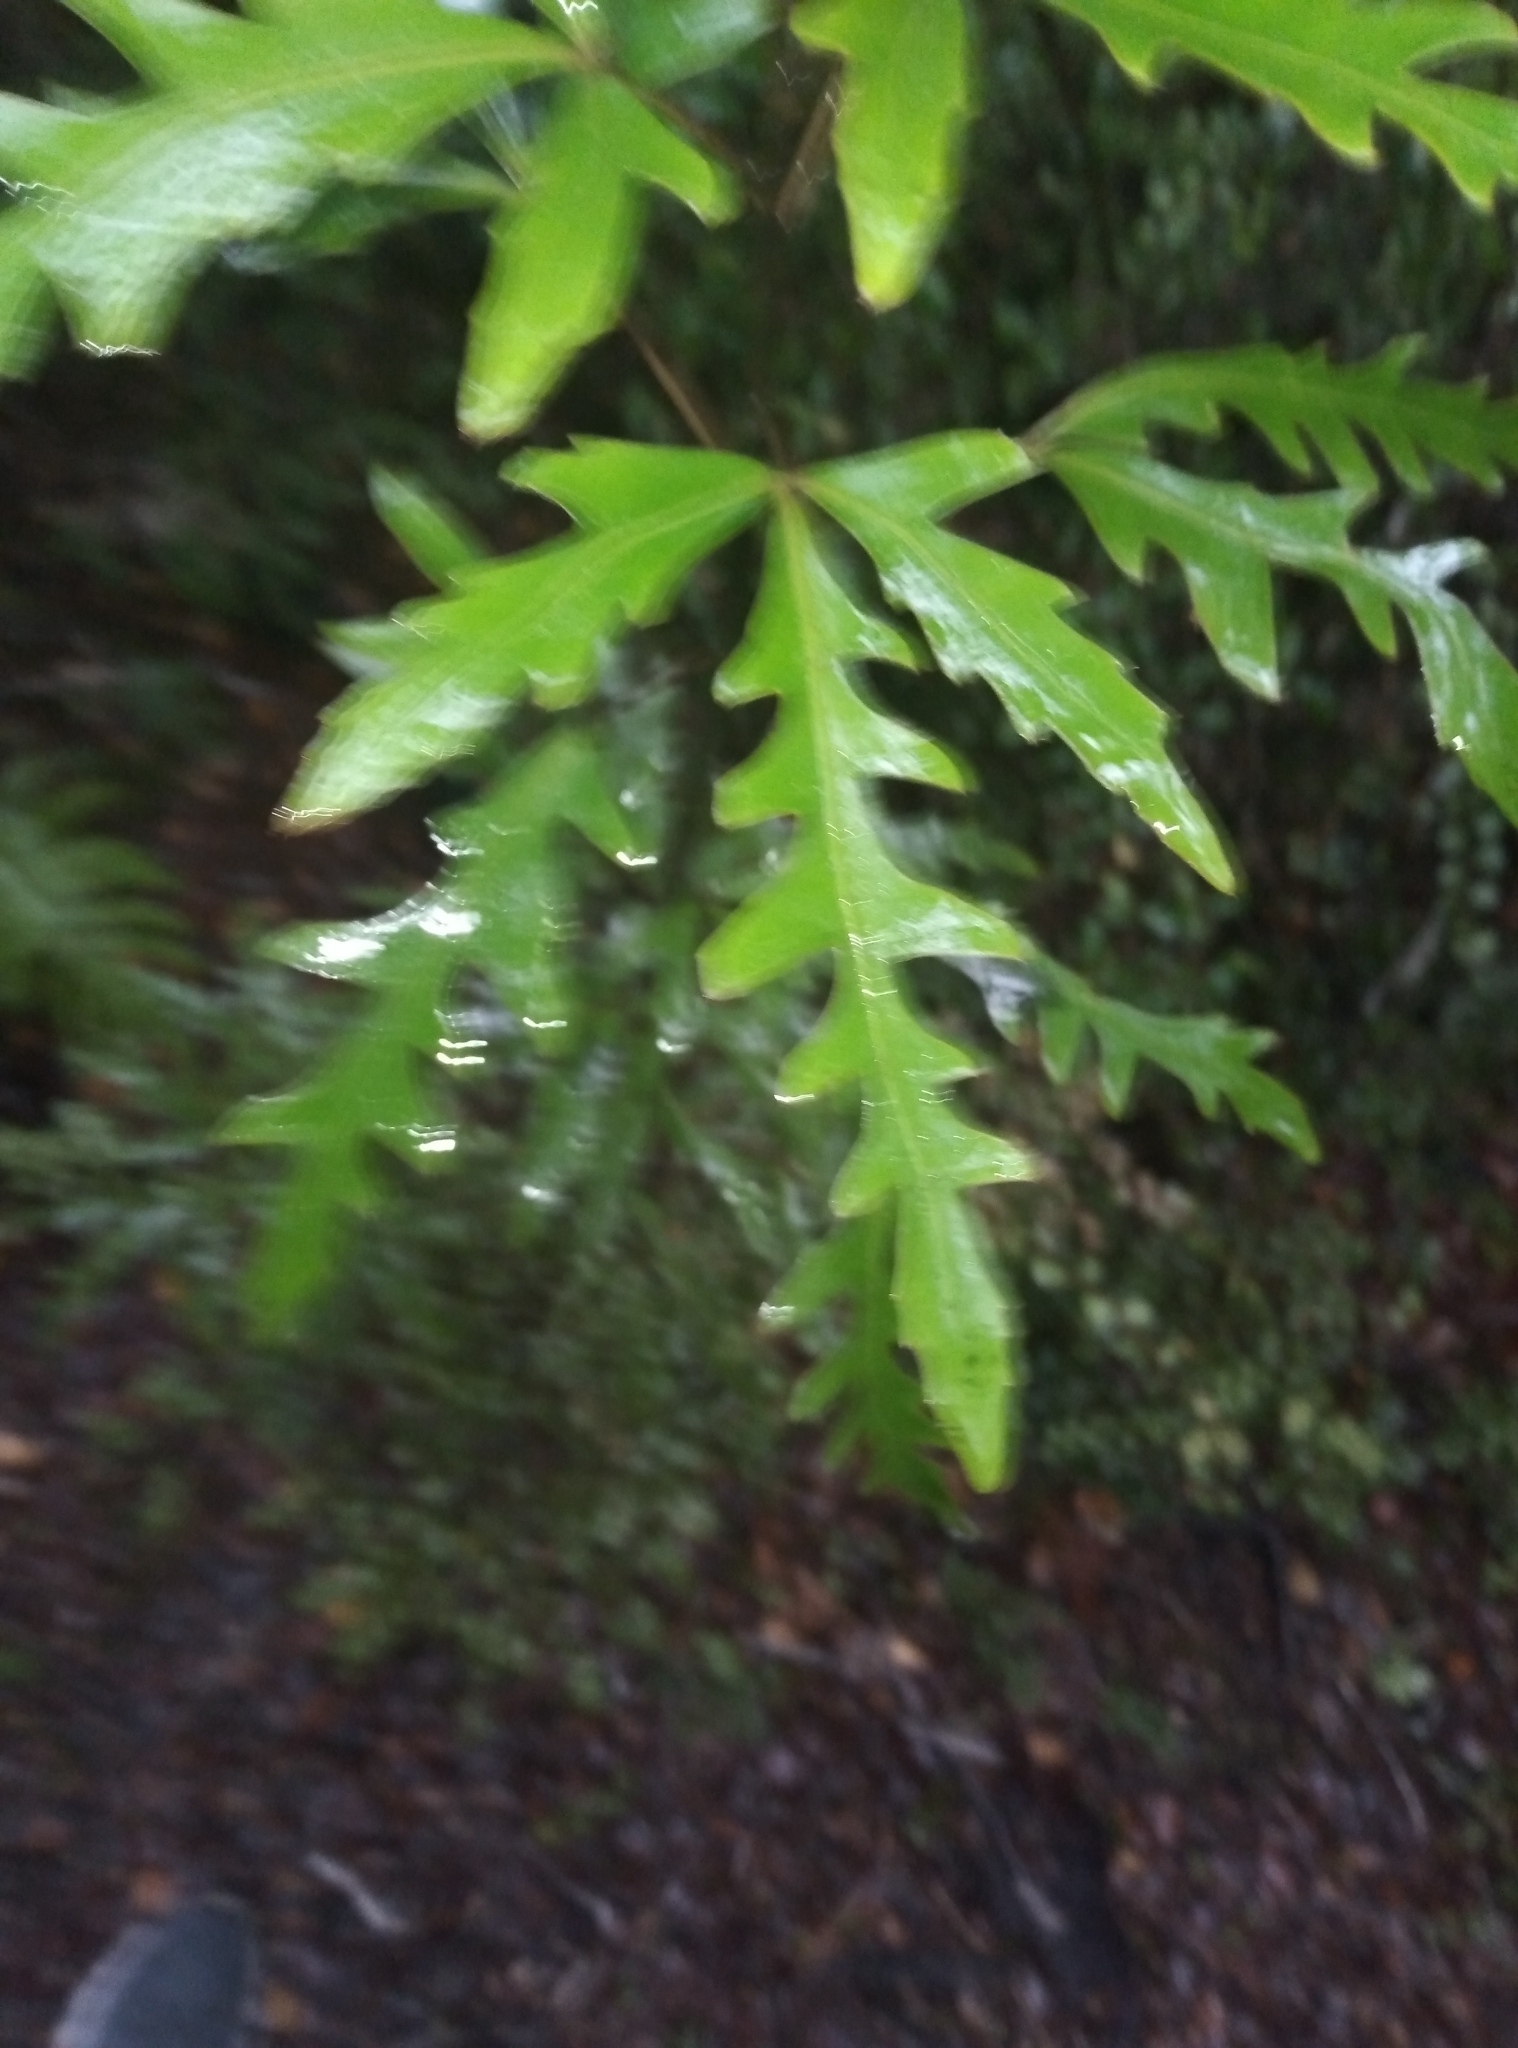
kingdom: Plantae
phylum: Tracheophyta
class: Magnoliopsida
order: Apiales
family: Araliaceae
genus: Raukaua
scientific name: Raukaua simplex
